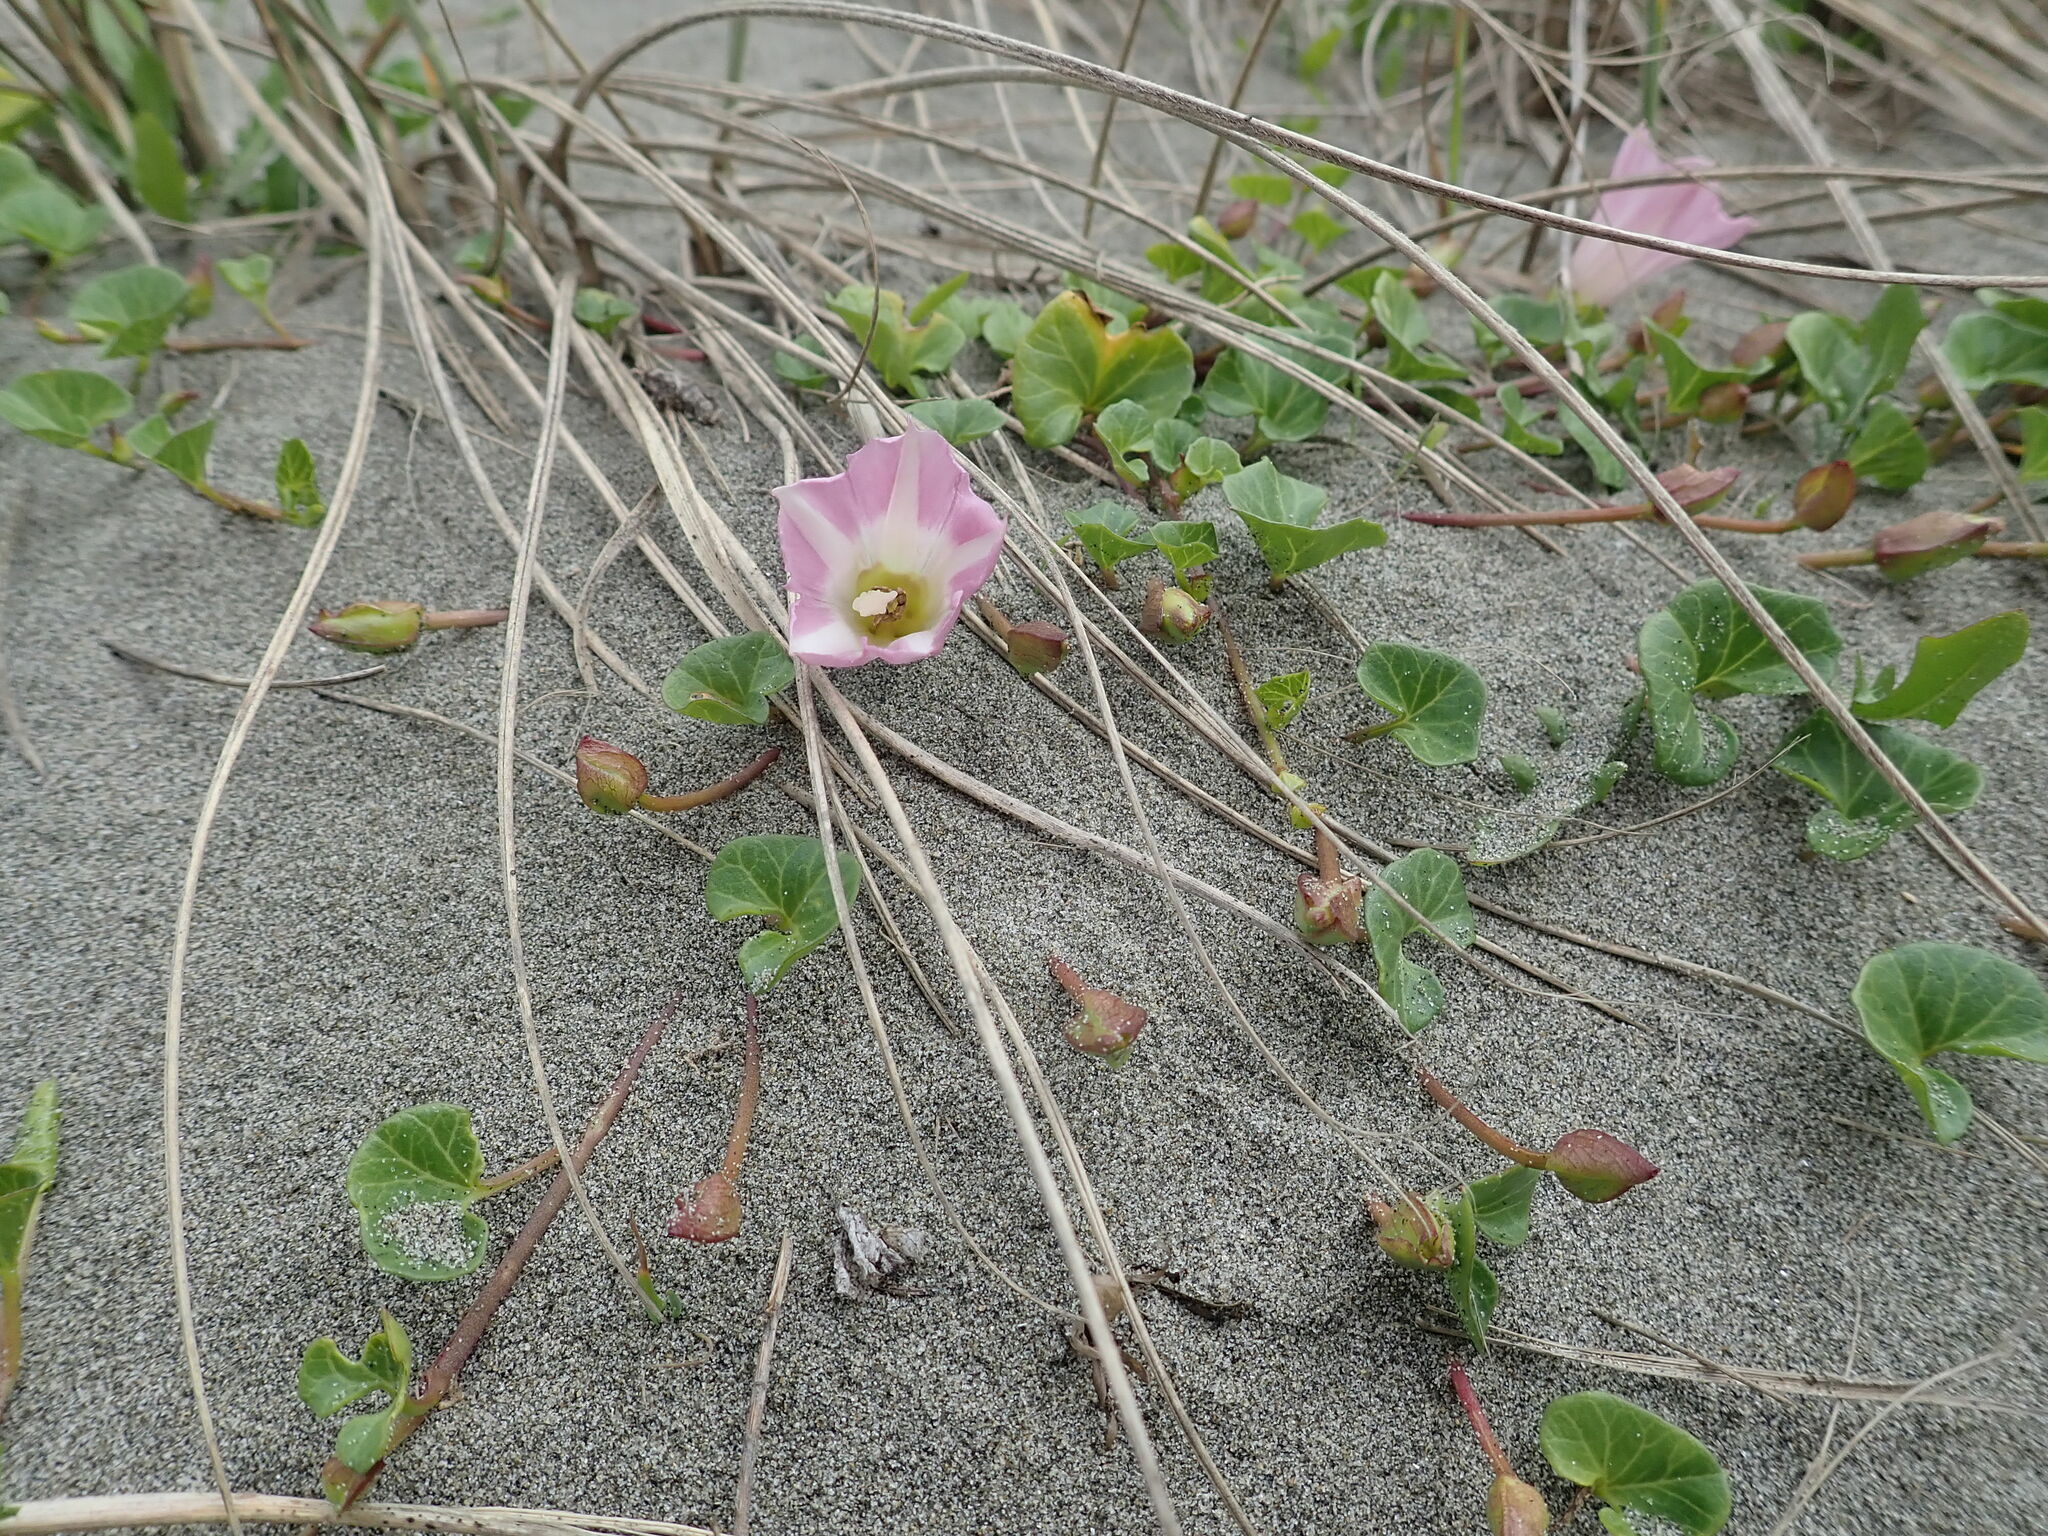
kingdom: Plantae
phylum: Tracheophyta
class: Magnoliopsida
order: Solanales
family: Convolvulaceae
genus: Calystegia
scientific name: Calystegia soldanella
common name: Sea bindweed
